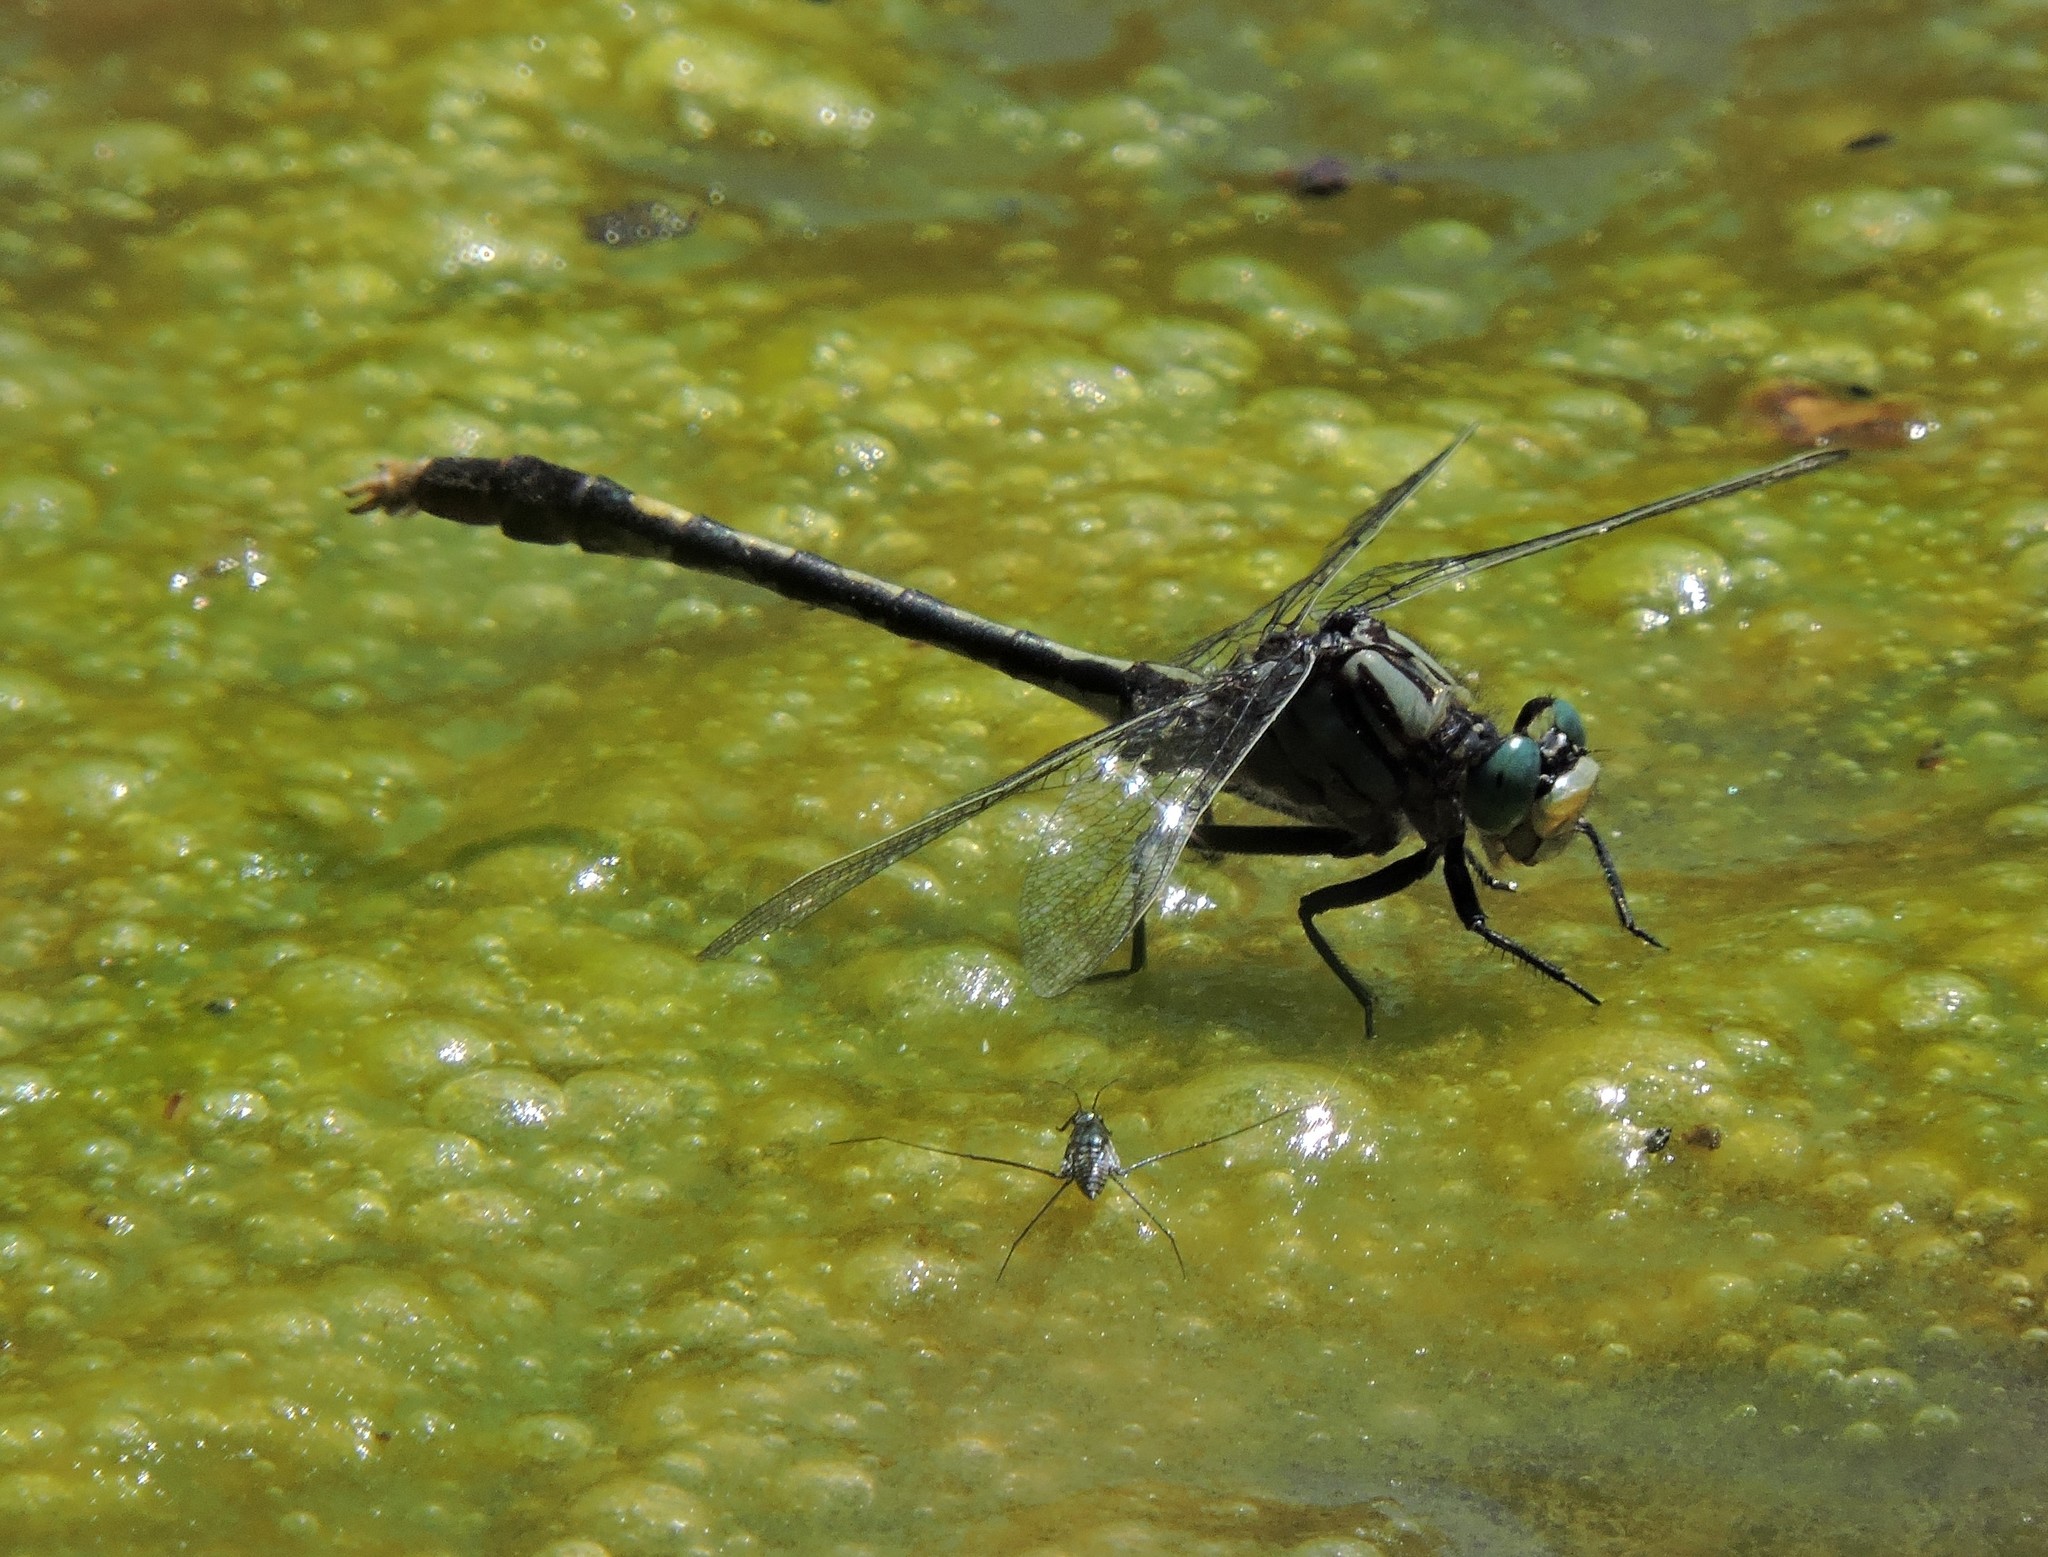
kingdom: Animalia
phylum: Arthropoda
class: Insecta
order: Odonata
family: Gomphidae
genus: Arigomphus
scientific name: Arigomphus villosipes
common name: Unicorn clubtail
